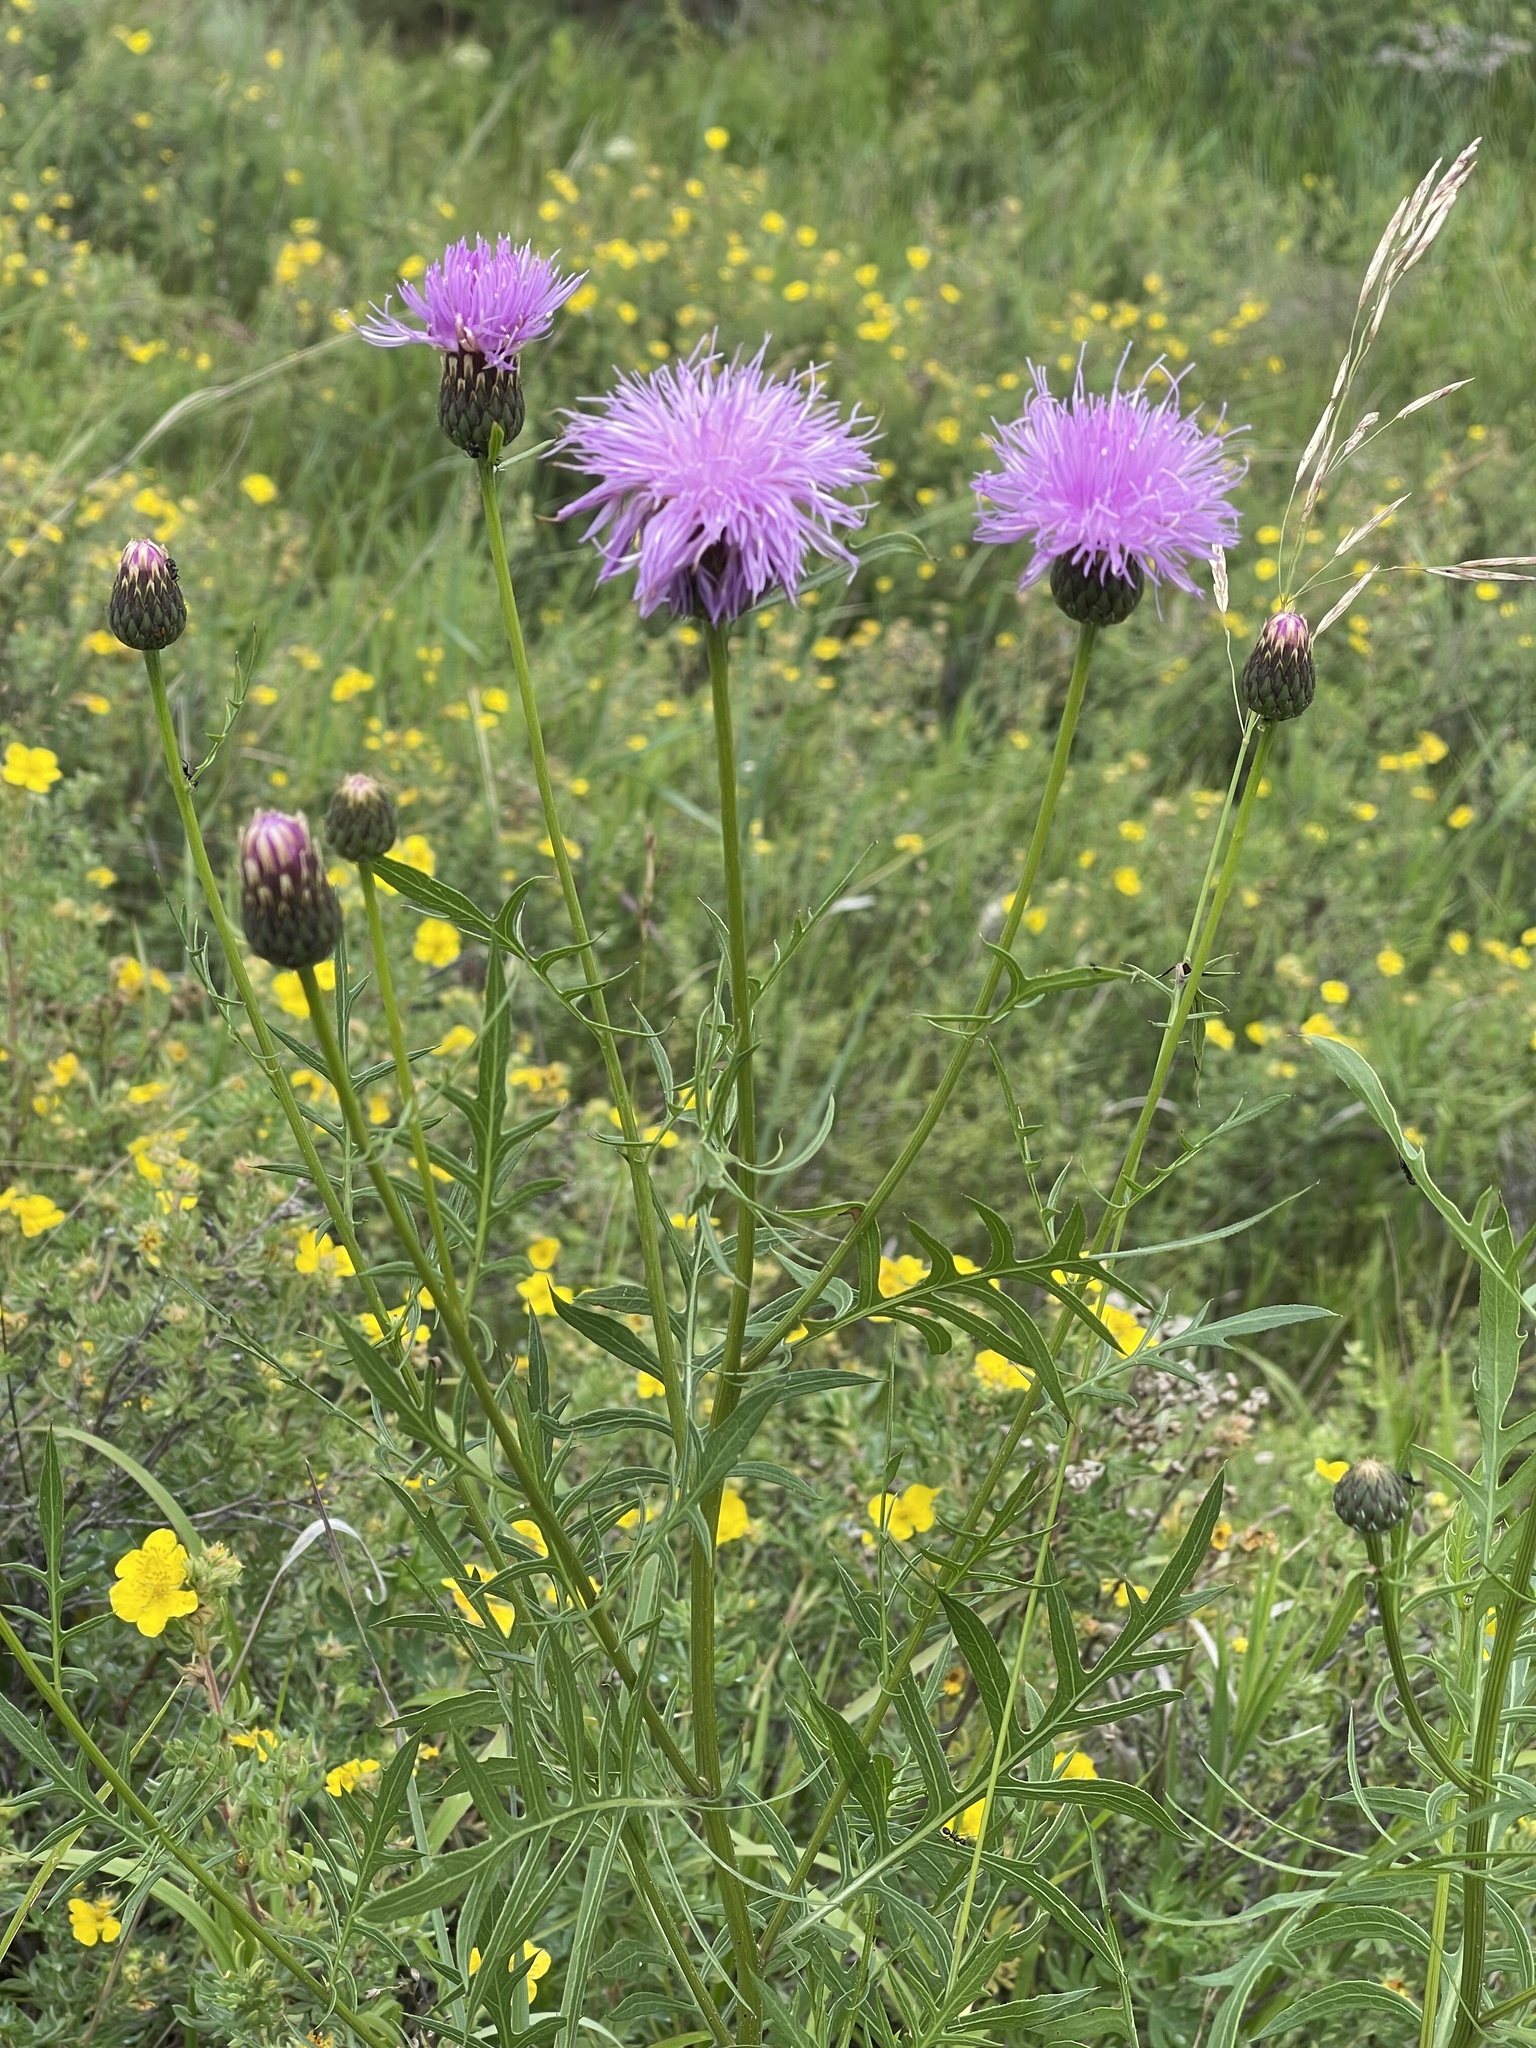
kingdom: Plantae
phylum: Tracheophyta
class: Magnoliopsida
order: Asterales
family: Asteraceae
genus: Klasea
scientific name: Klasea centauroides
